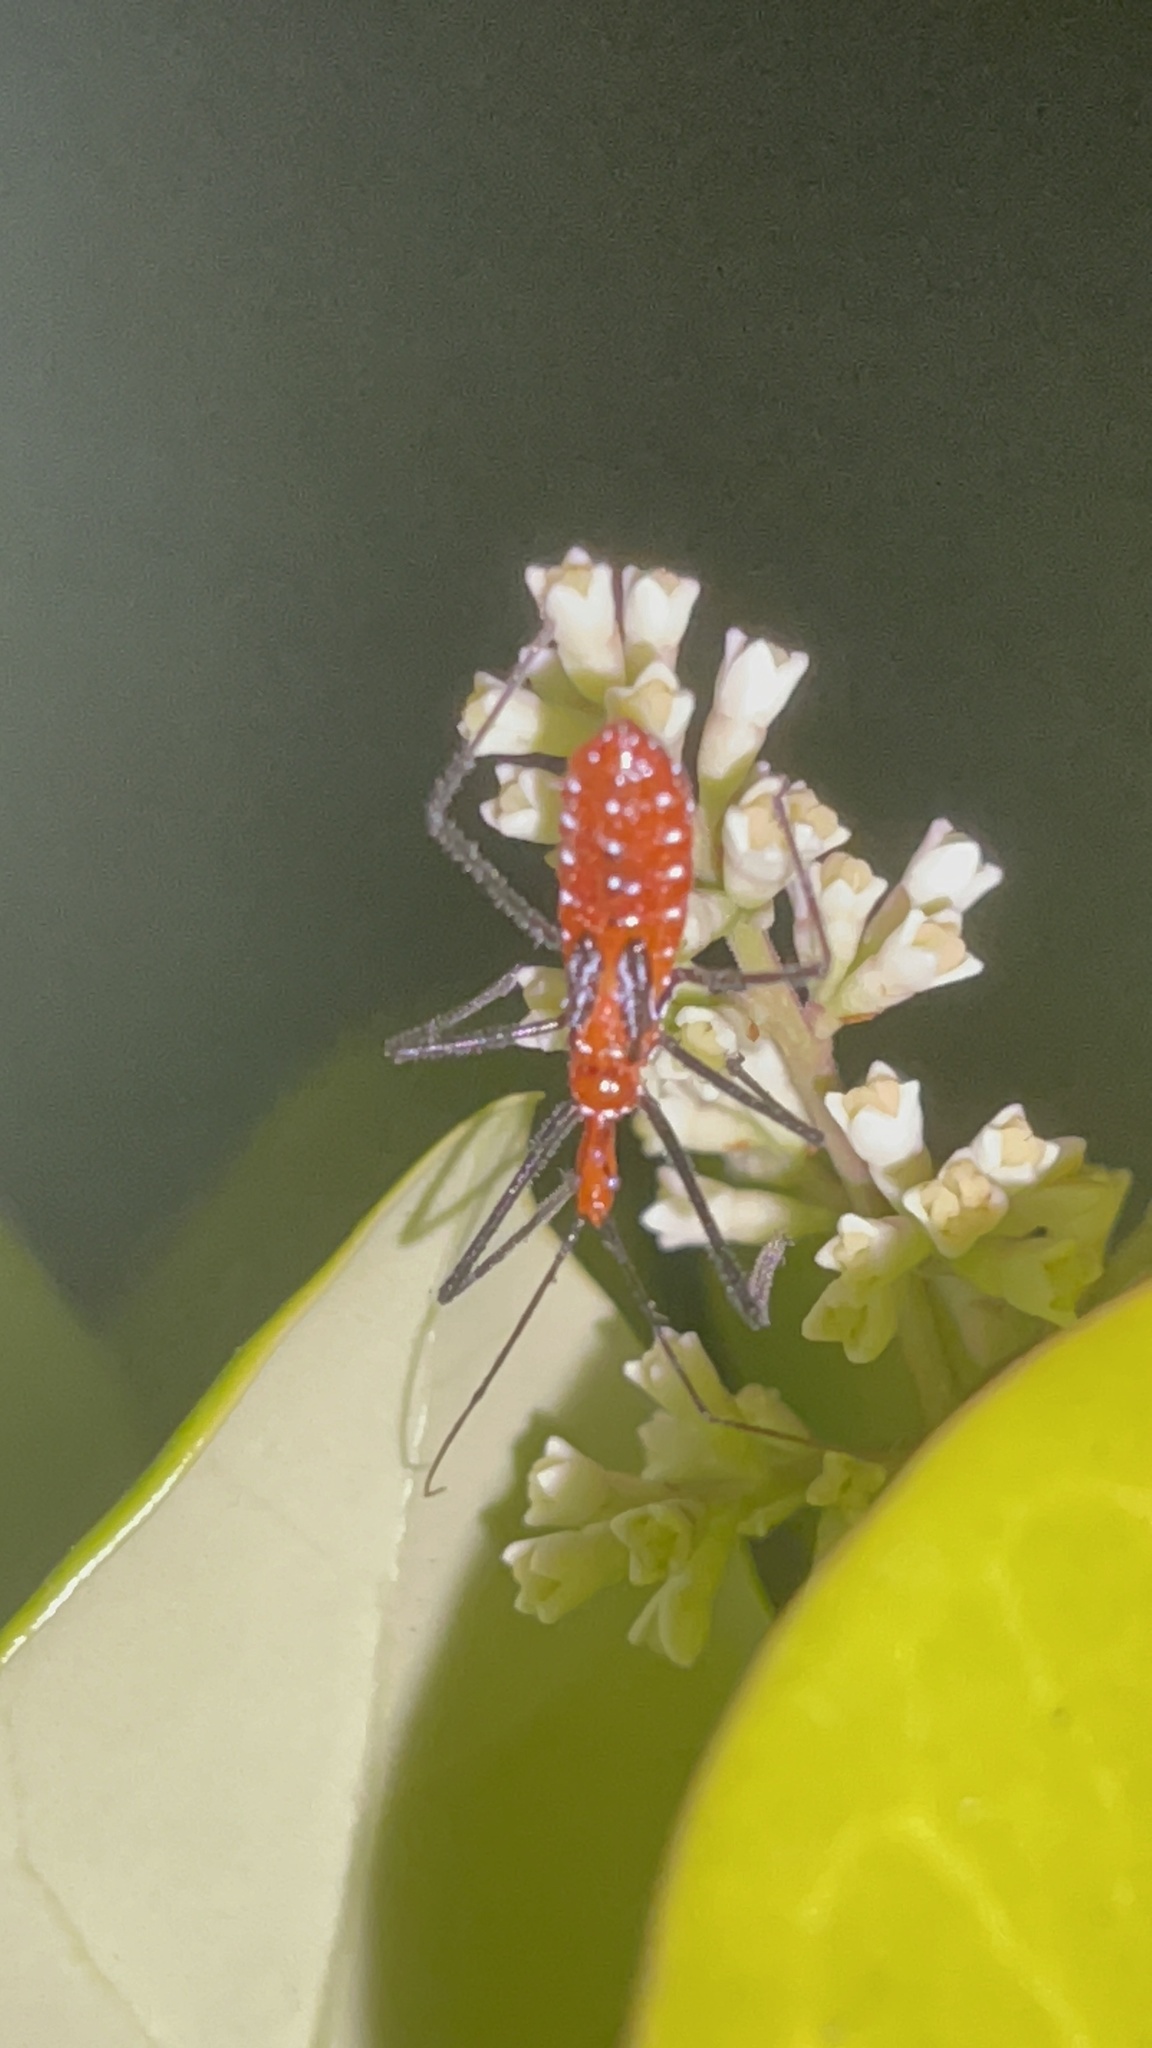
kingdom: Animalia
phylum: Arthropoda
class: Insecta
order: Hemiptera
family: Reduviidae
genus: Zelus
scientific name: Zelus longipes
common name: Milkweed assassin bug
